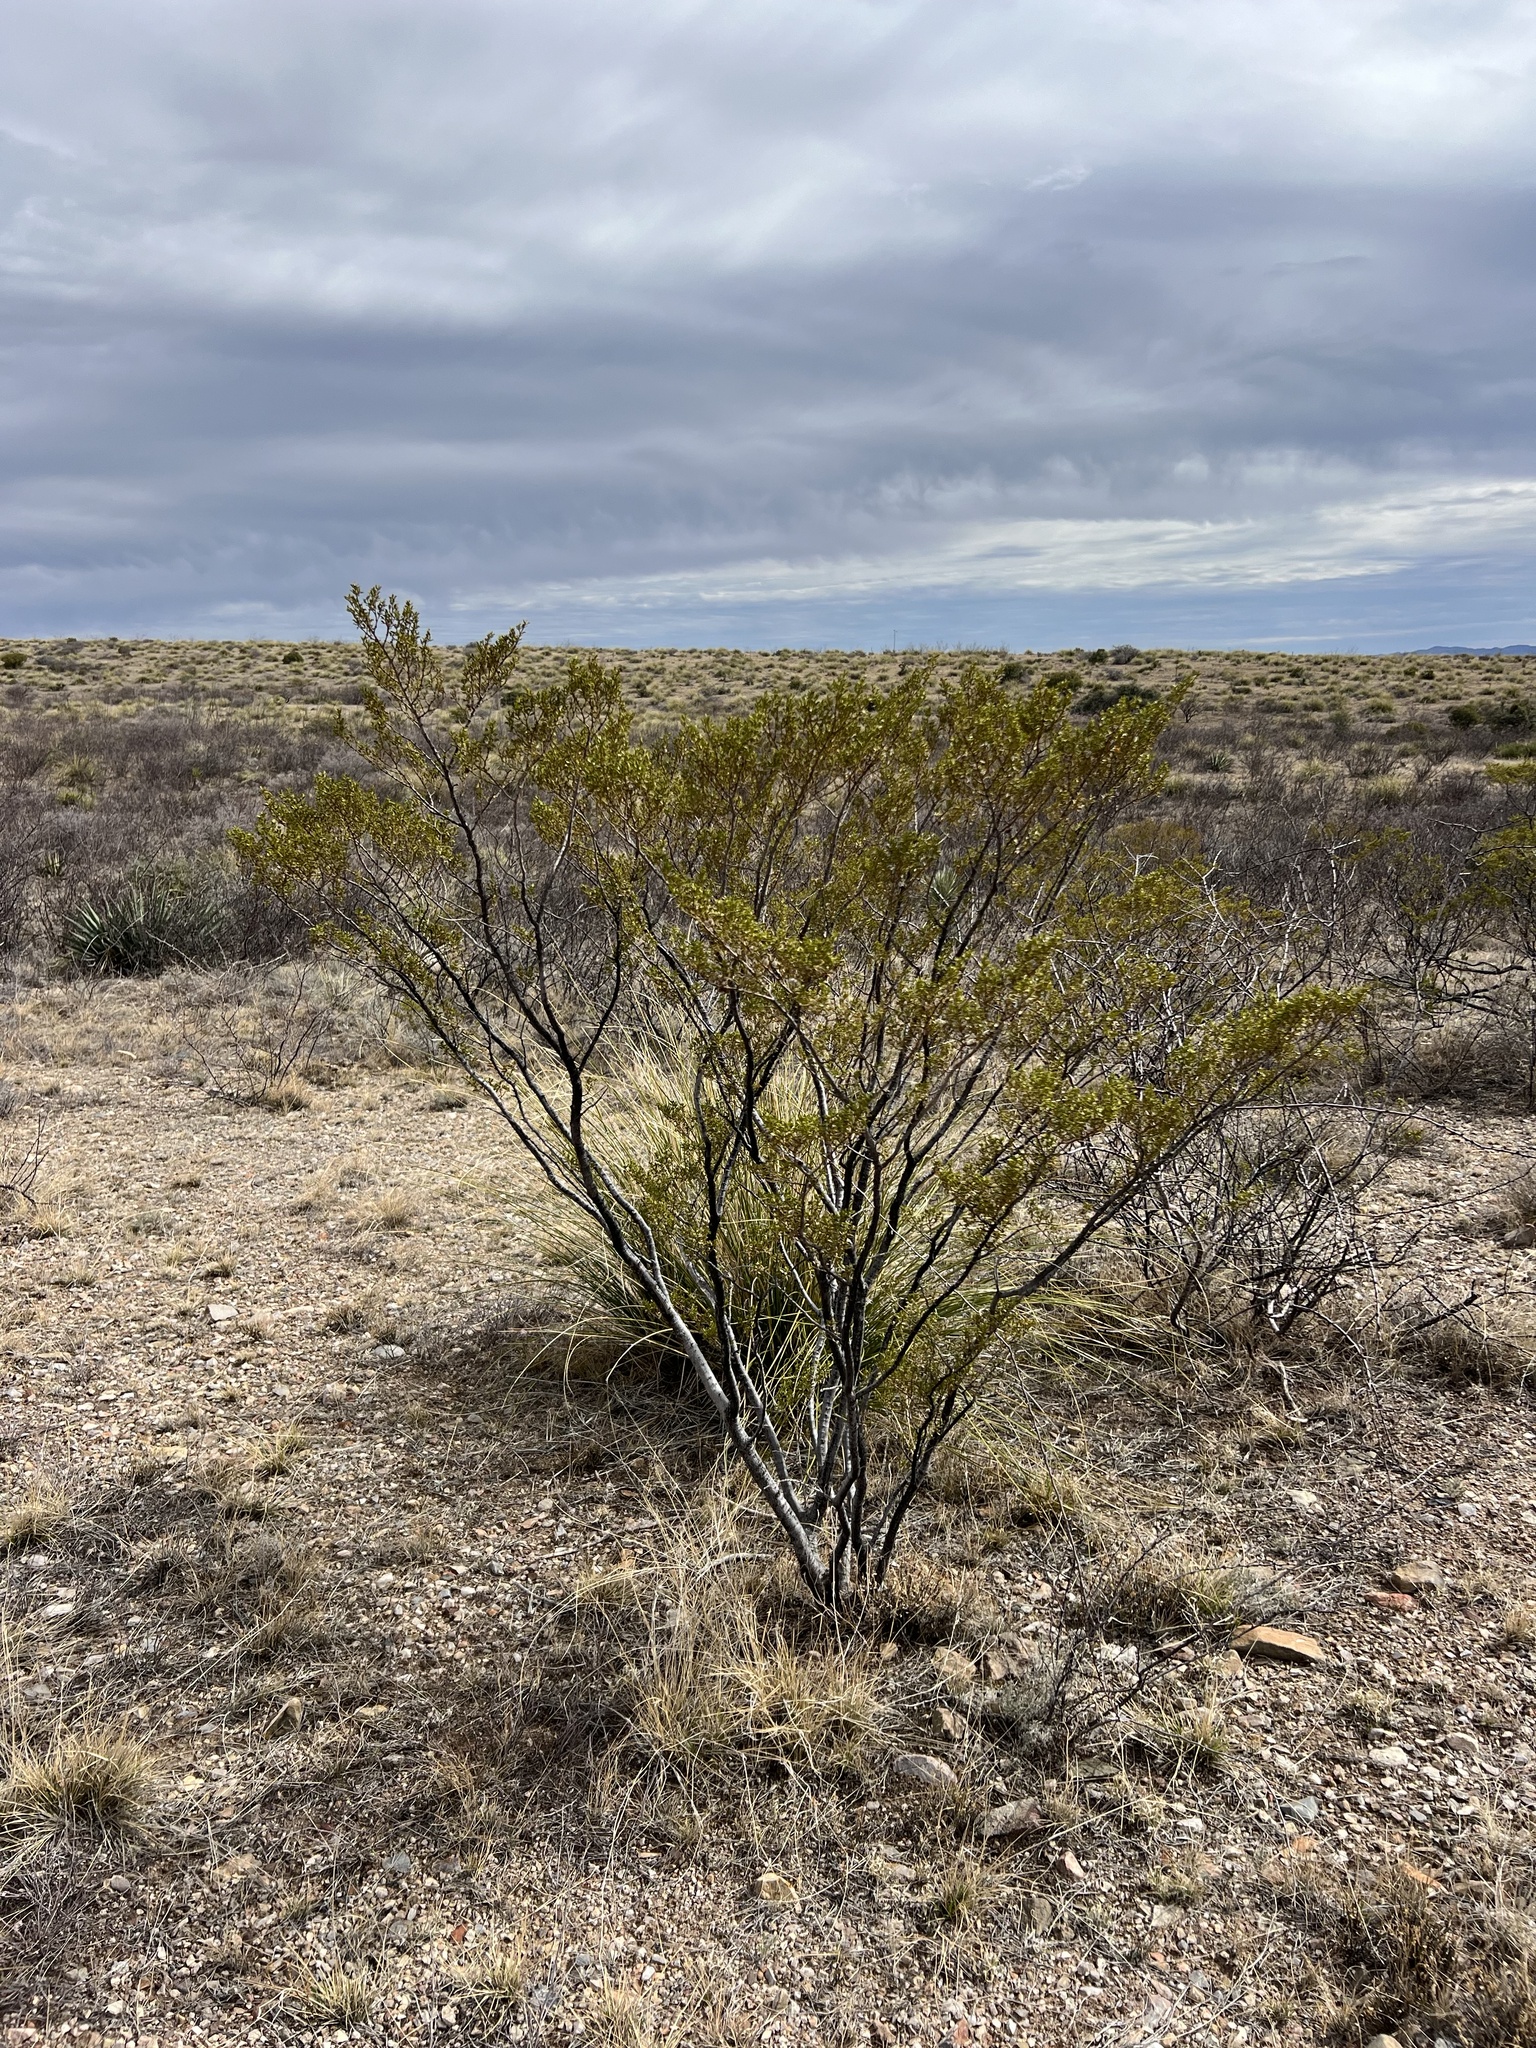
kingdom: Plantae
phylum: Tracheophyta
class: Magnoliopsida
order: Zygophyllales
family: Zygophyllaceae
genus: Larrea
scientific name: Larrea tridentata
